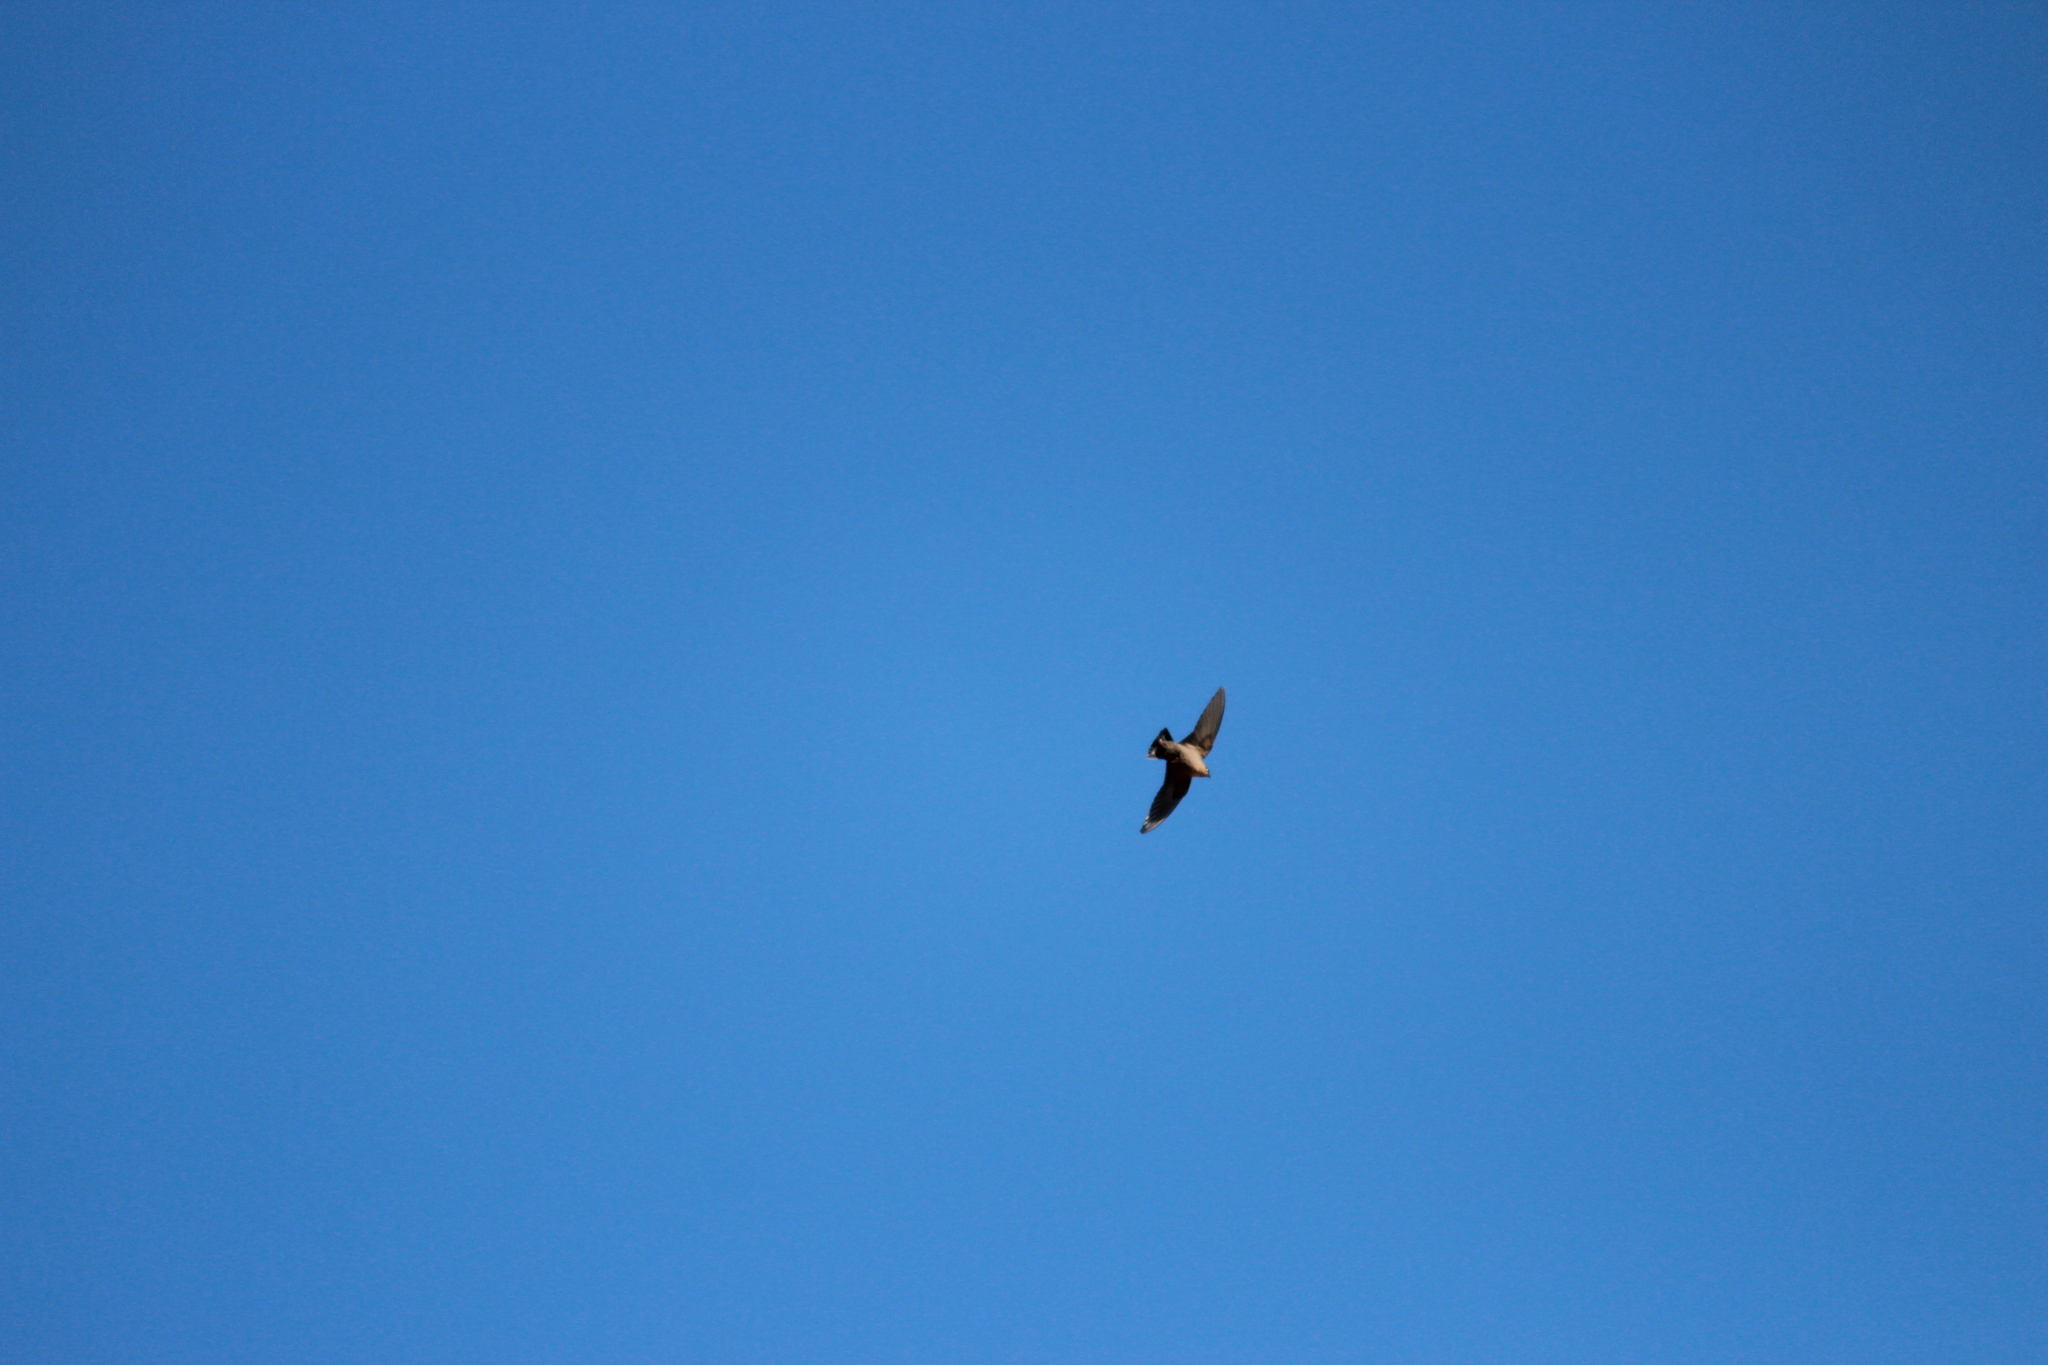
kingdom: Animalia
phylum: Chordata
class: Aves
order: Passeriformes
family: Hirundinidae
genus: Ptyonoprogne
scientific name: Ptyonoprogne fuligula
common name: Rock martin
